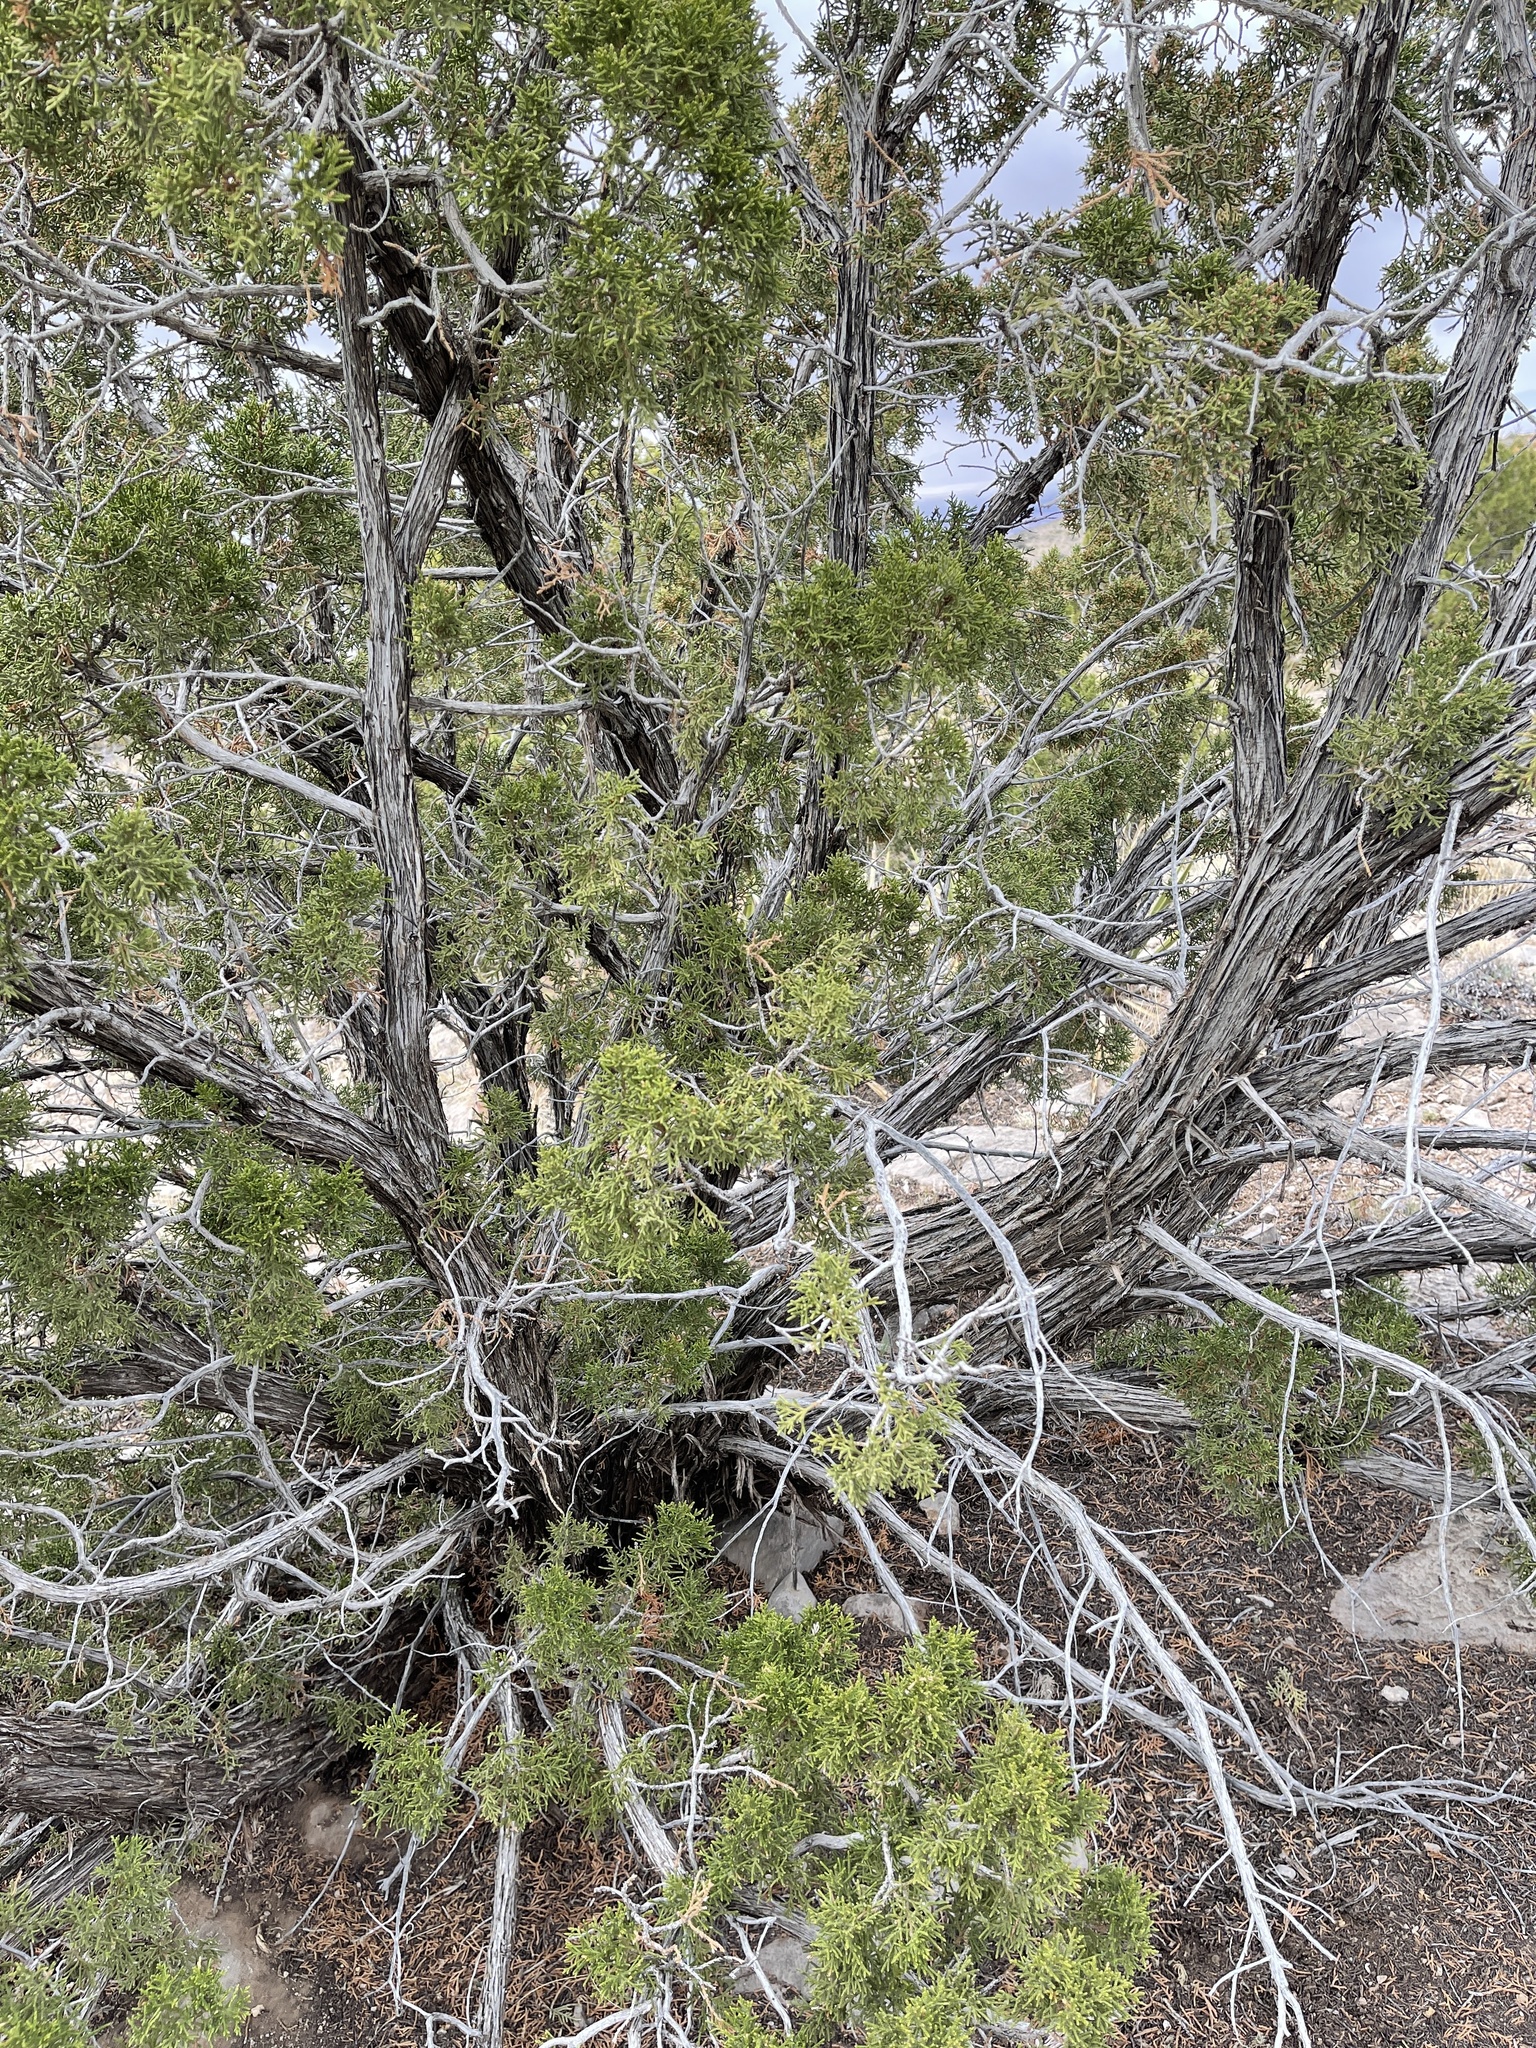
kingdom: Plantae
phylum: Tracheophyta
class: Pinopsida
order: Pinales
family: Cupressaceae
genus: Juniperus
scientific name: Juniperus monosperma
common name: One-seed juniper
